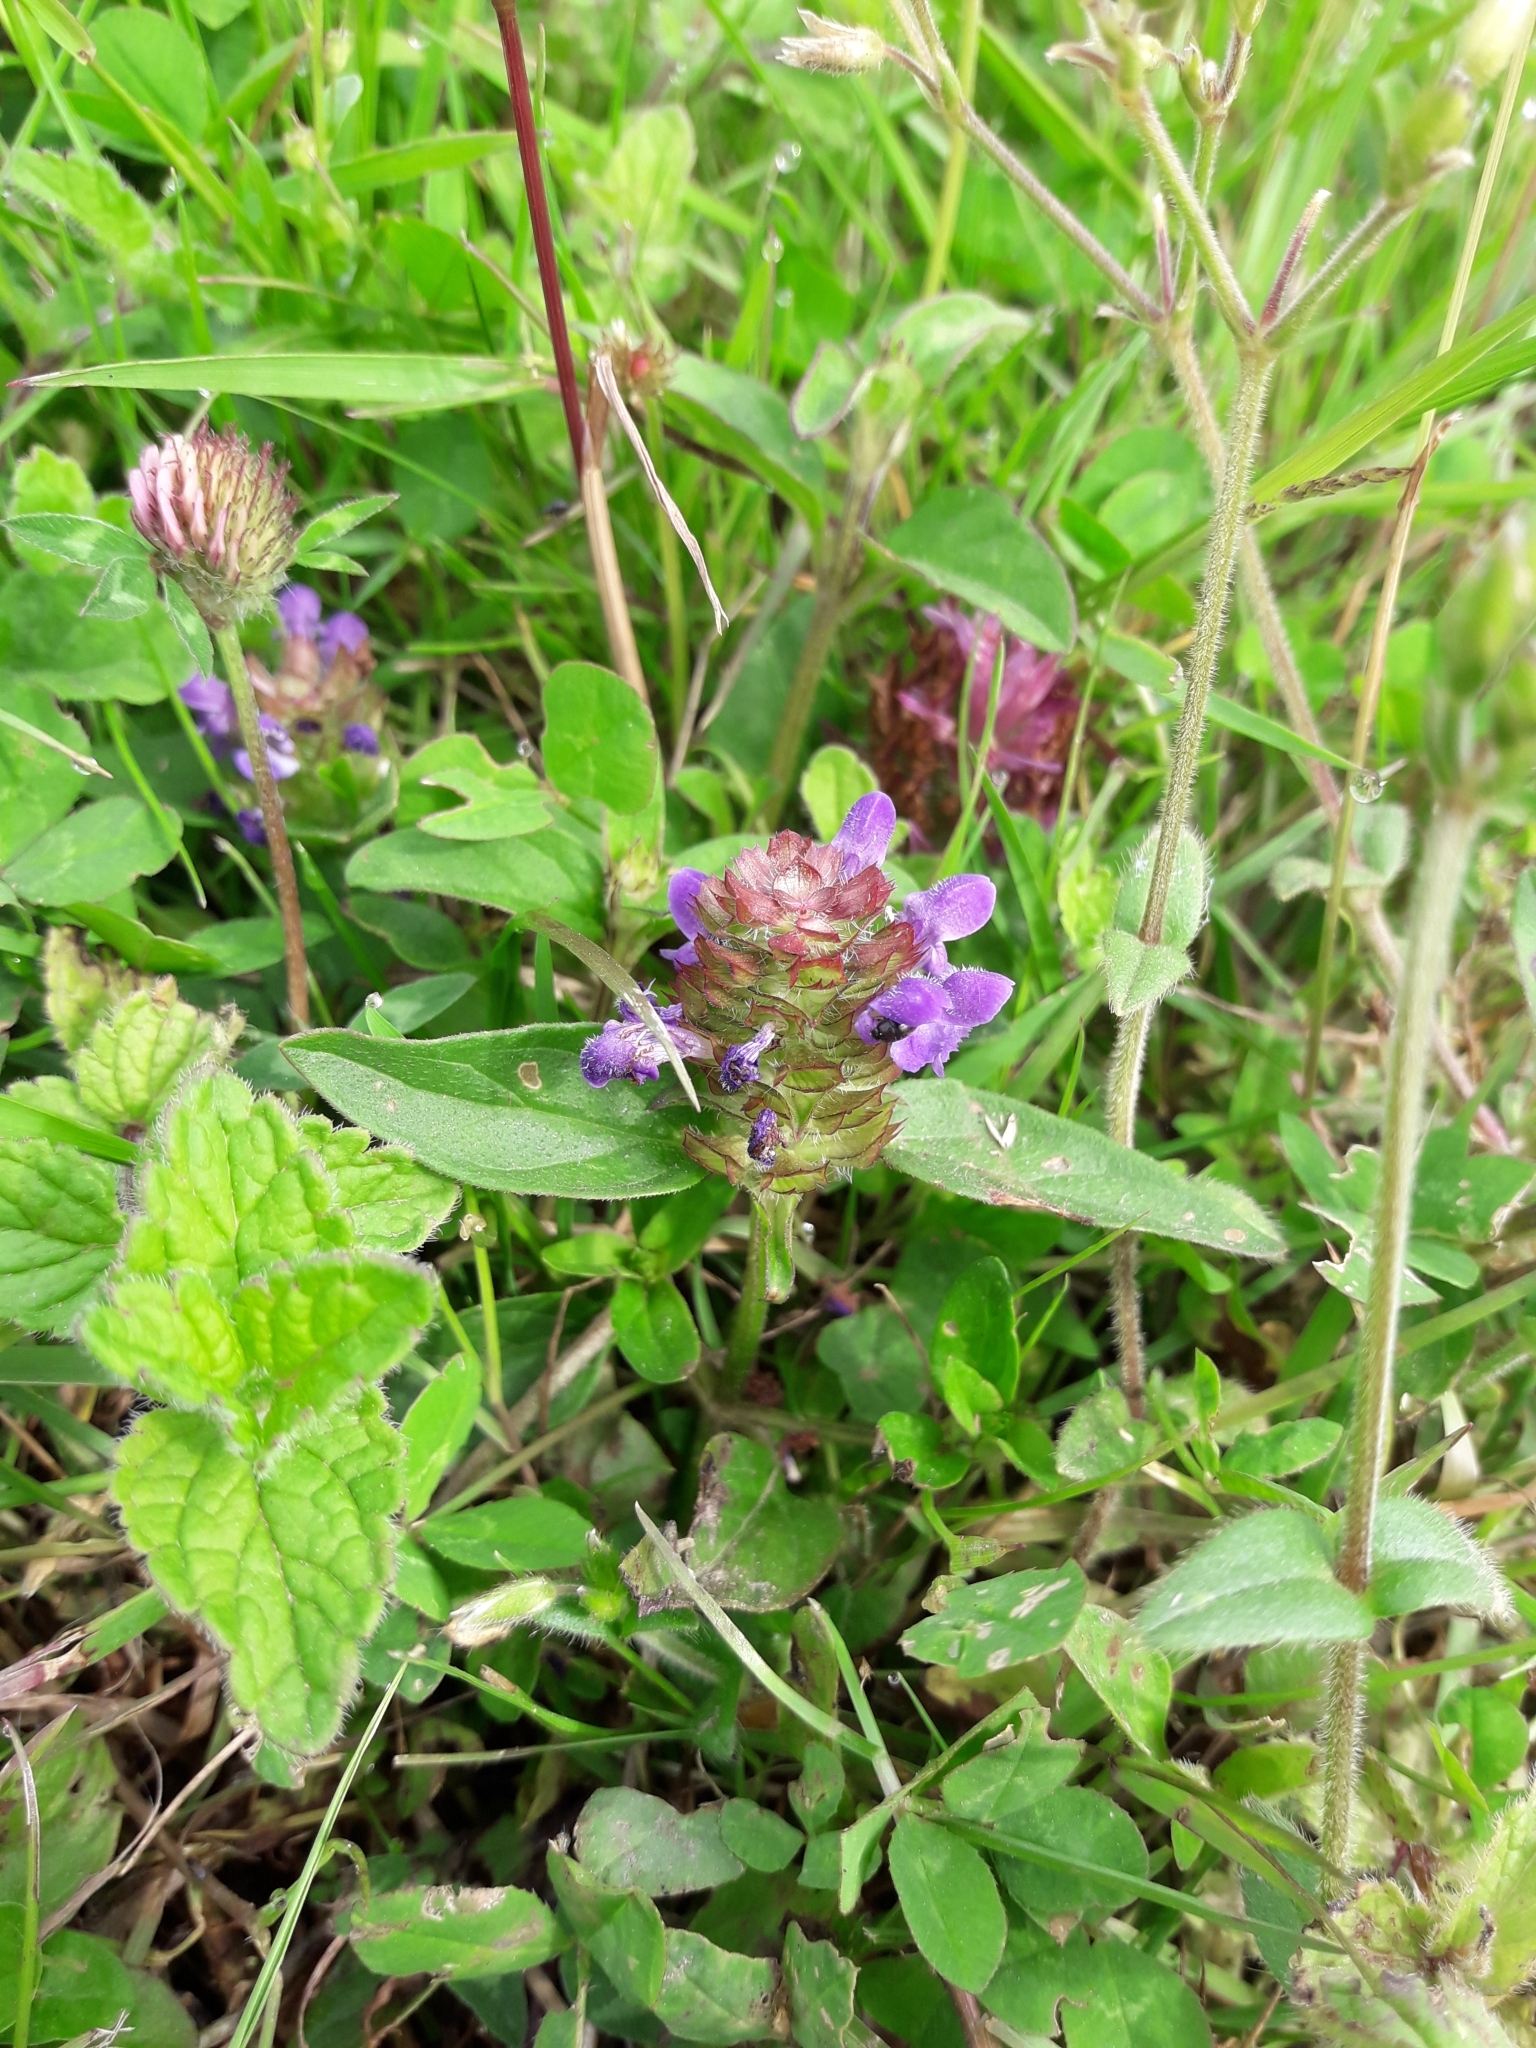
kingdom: Plantae
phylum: Tracheophyta
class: Magnoliopsida
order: Lamiales
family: Lamiaceae
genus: Prunella
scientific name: Prunella vulgaris
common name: Heal-all
